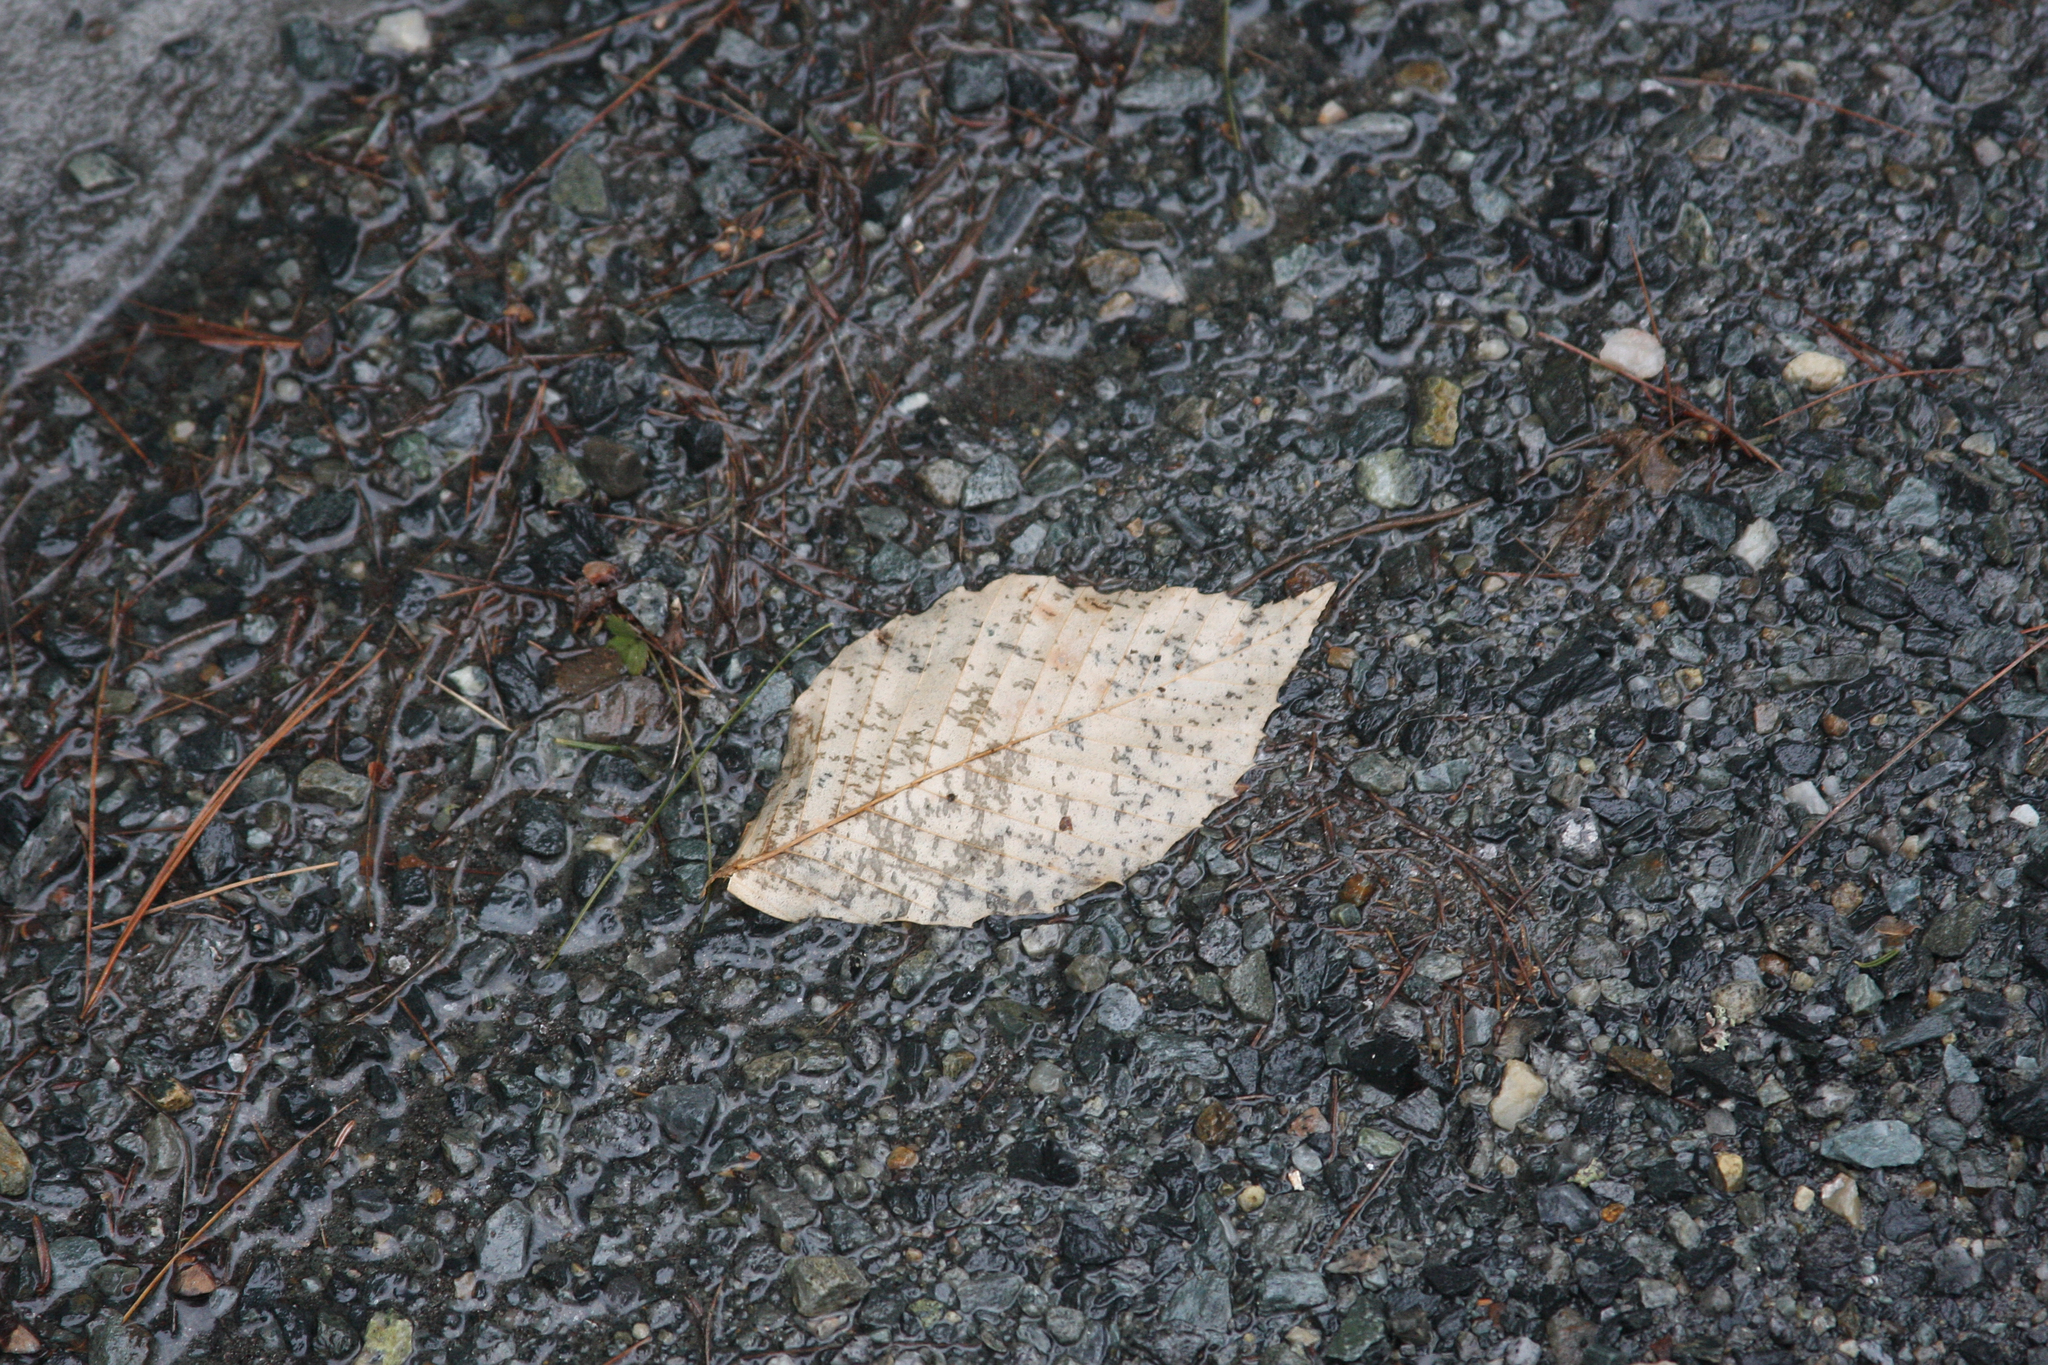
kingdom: Plantae
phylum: Tracheophyta
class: Magnoliopsida
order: Fagales
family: Fagaceae
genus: Fagus
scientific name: Fagus grandifolia
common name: American beech
